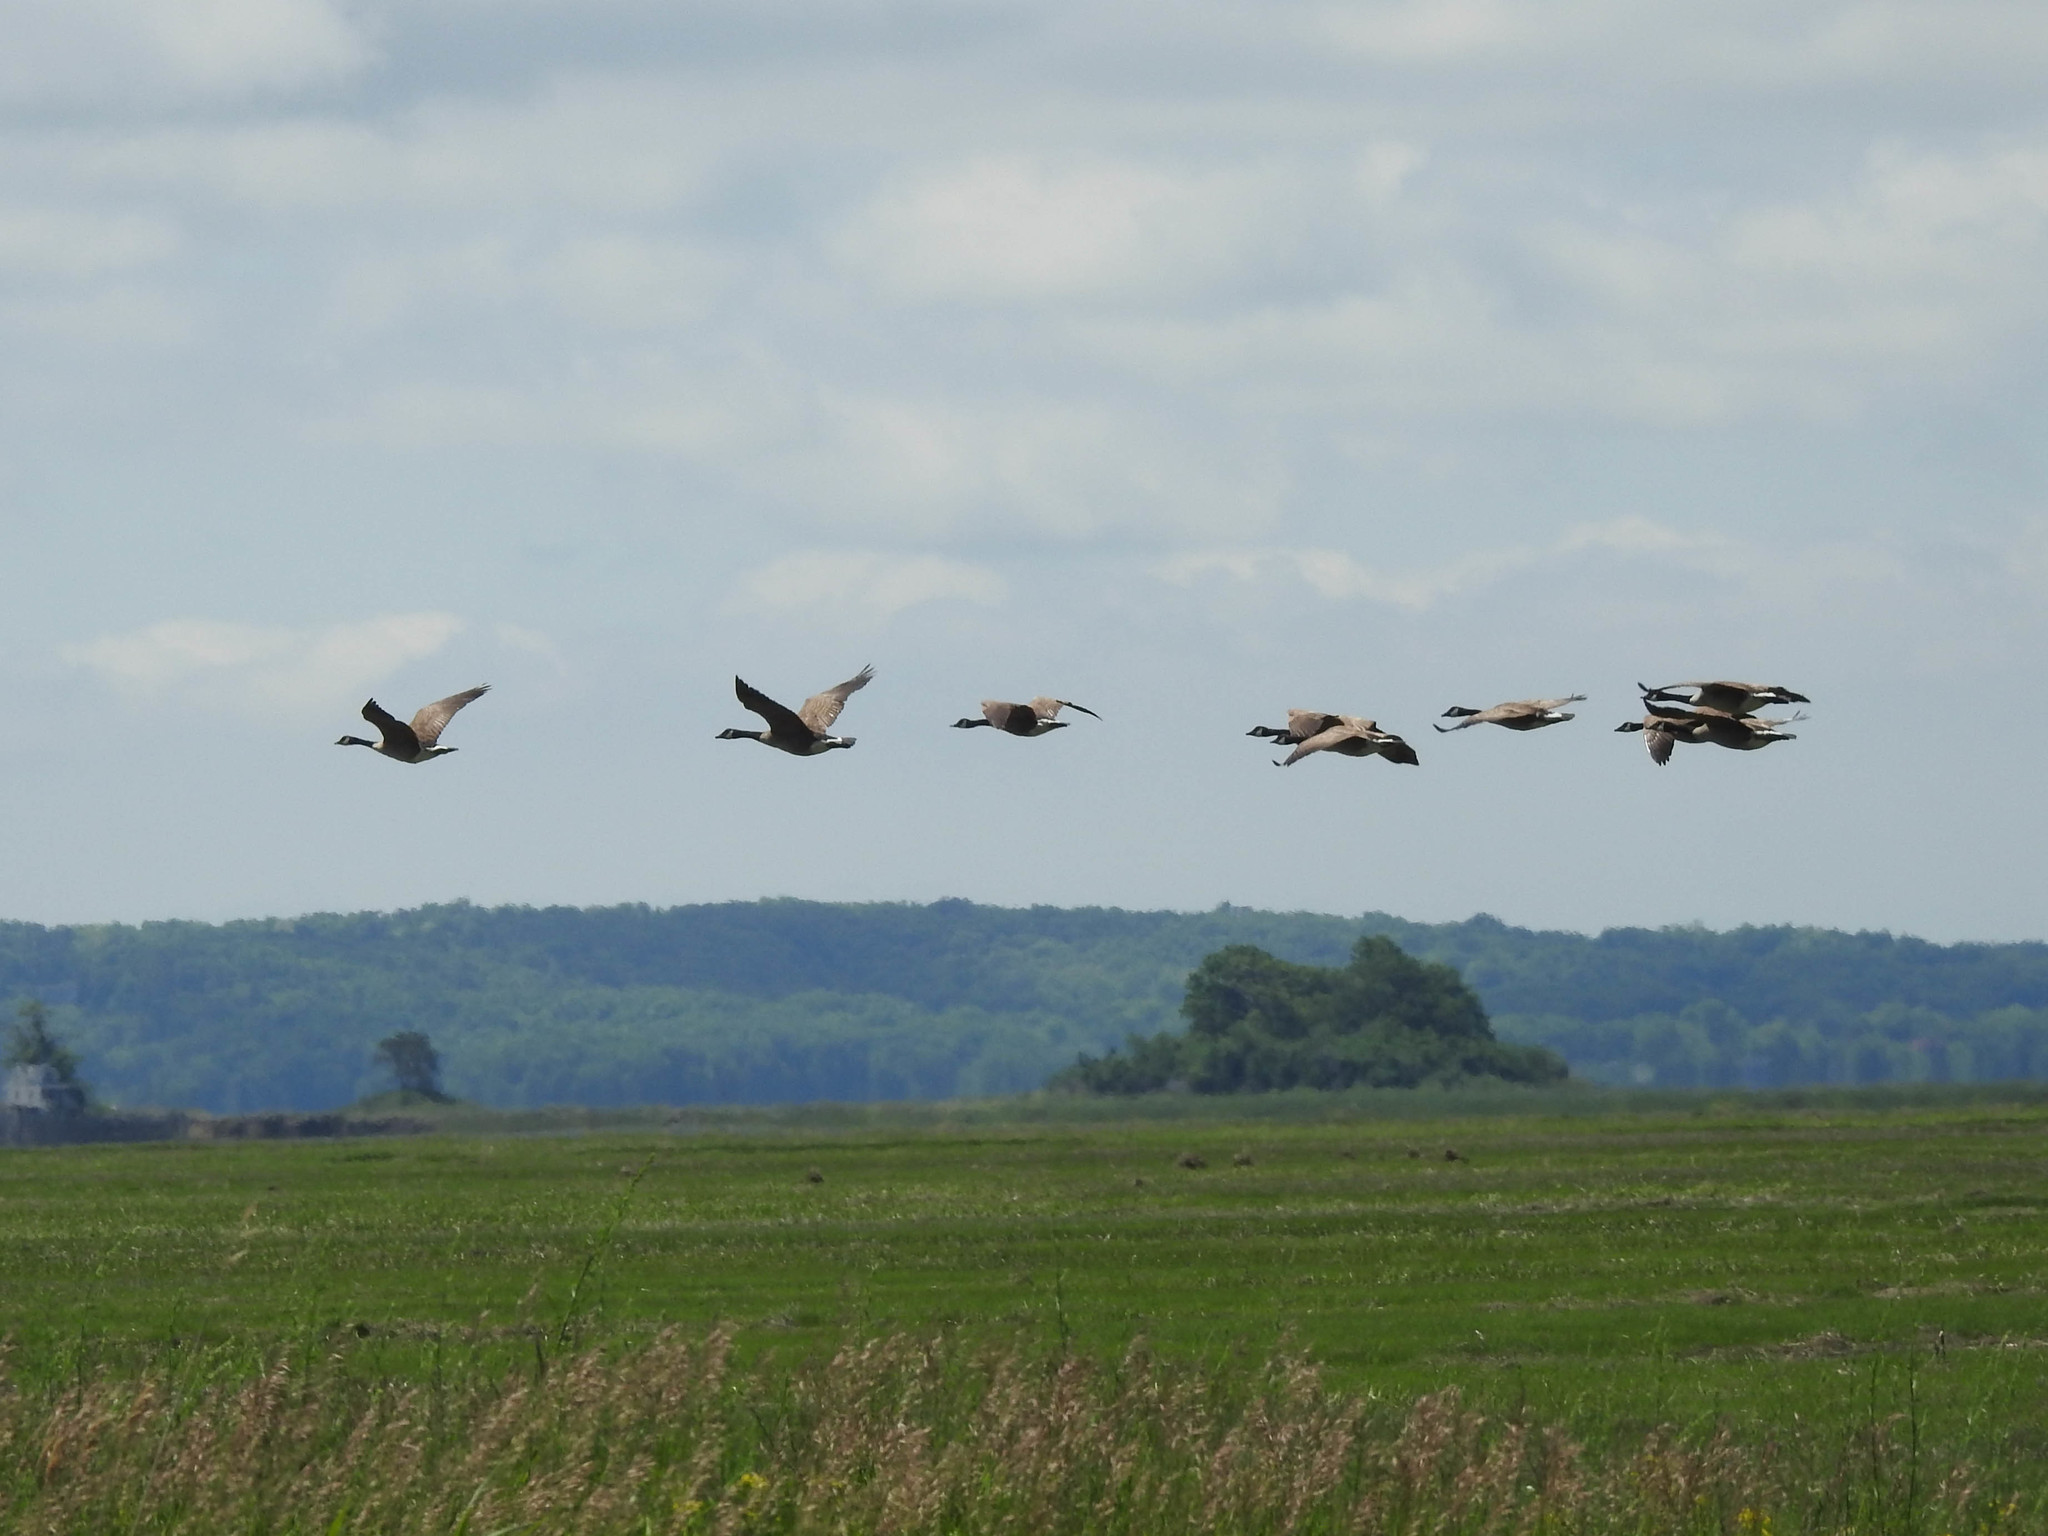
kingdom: Animalia
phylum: Chordata
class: Aves
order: Anseriformes
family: Anatidae
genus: Branta
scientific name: Branta canadensis
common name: Canada goose
